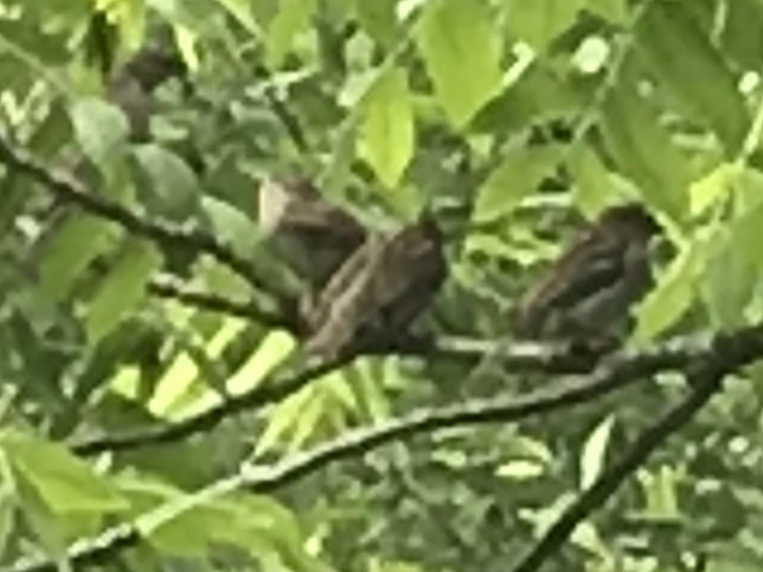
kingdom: Animalia
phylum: Chordata
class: Aves
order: Passeriformes
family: Passeridae
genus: Passer
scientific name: Passer domesticus
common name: House sparrow
